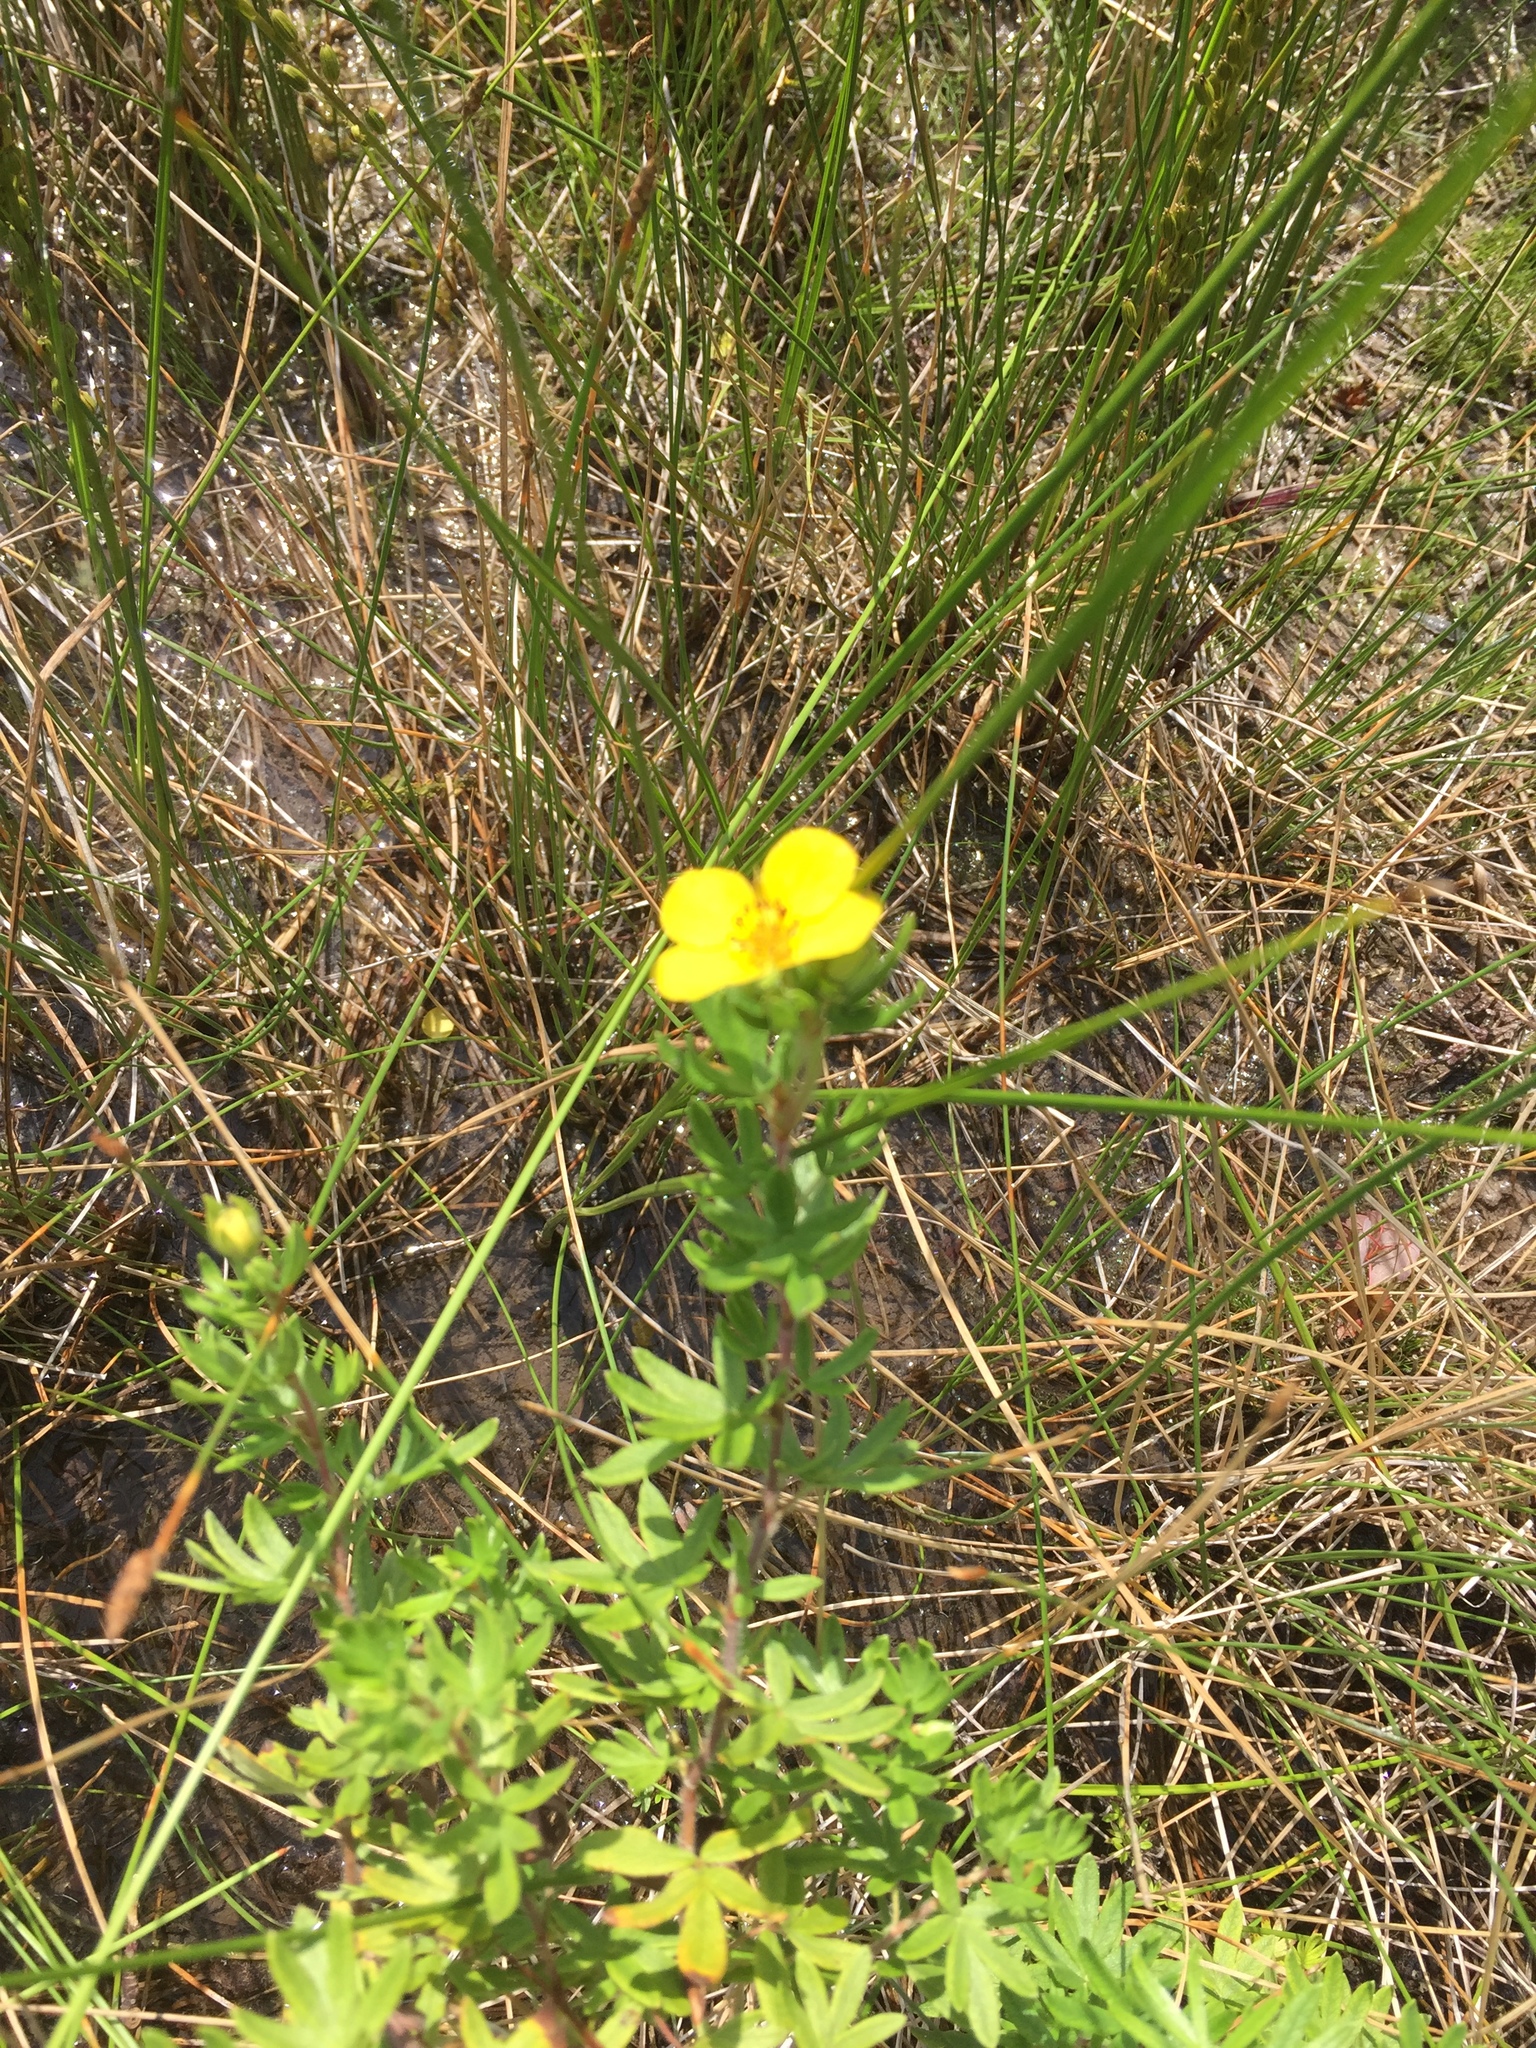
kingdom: Plantae
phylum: Tracheophyta
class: Magnoliopsida
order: Rosales
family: Rosaceae
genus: Dasiphora
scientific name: Dasiphora fruticosa
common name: Shrubby cinquefoil
